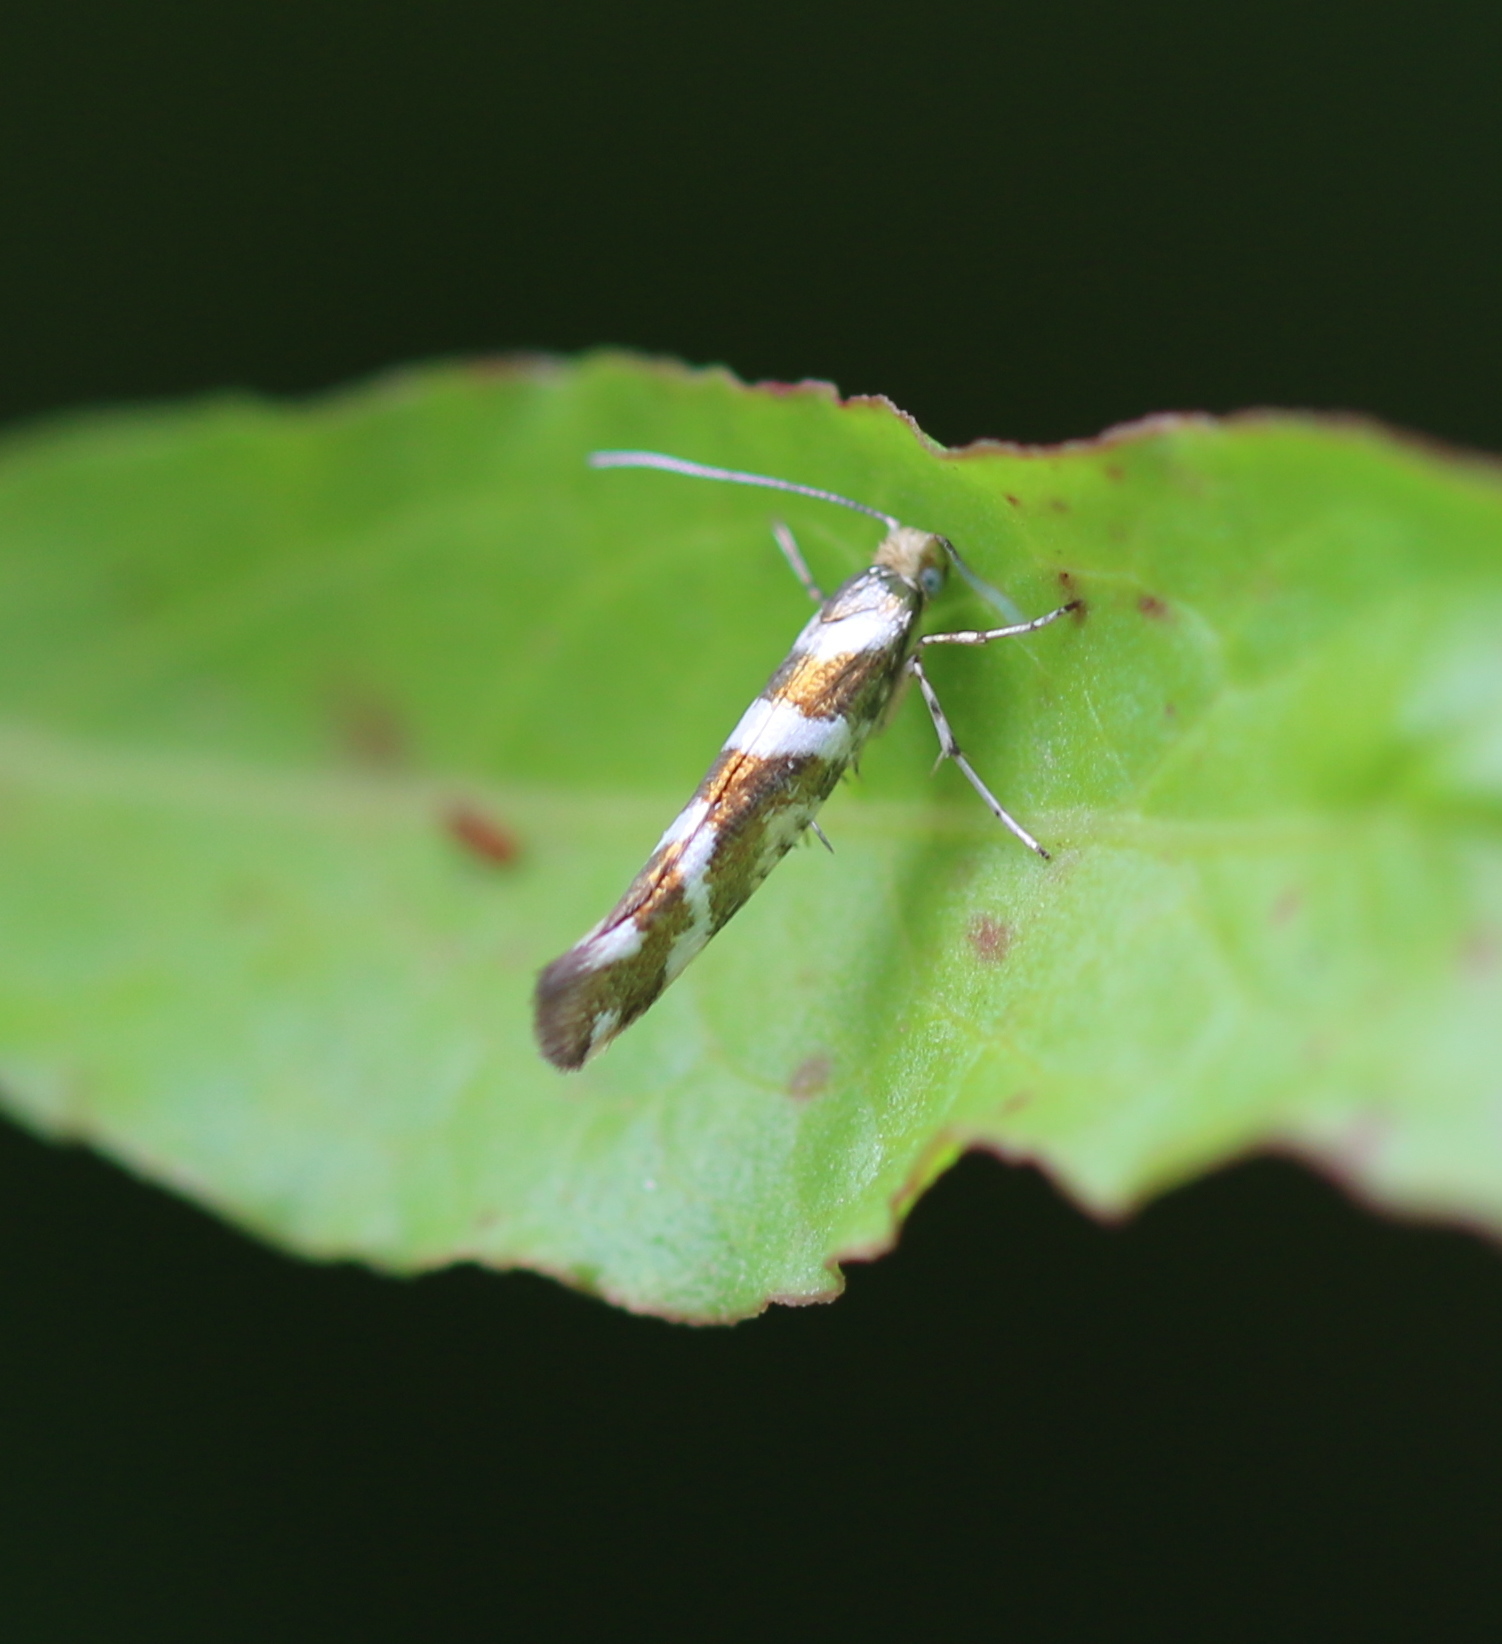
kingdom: Animalia
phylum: Arthropoda
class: Insecta
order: Lepidoptera
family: Argyresthiidae
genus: Argyresthia
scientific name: Argyresthia goedartella
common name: Golden argent
